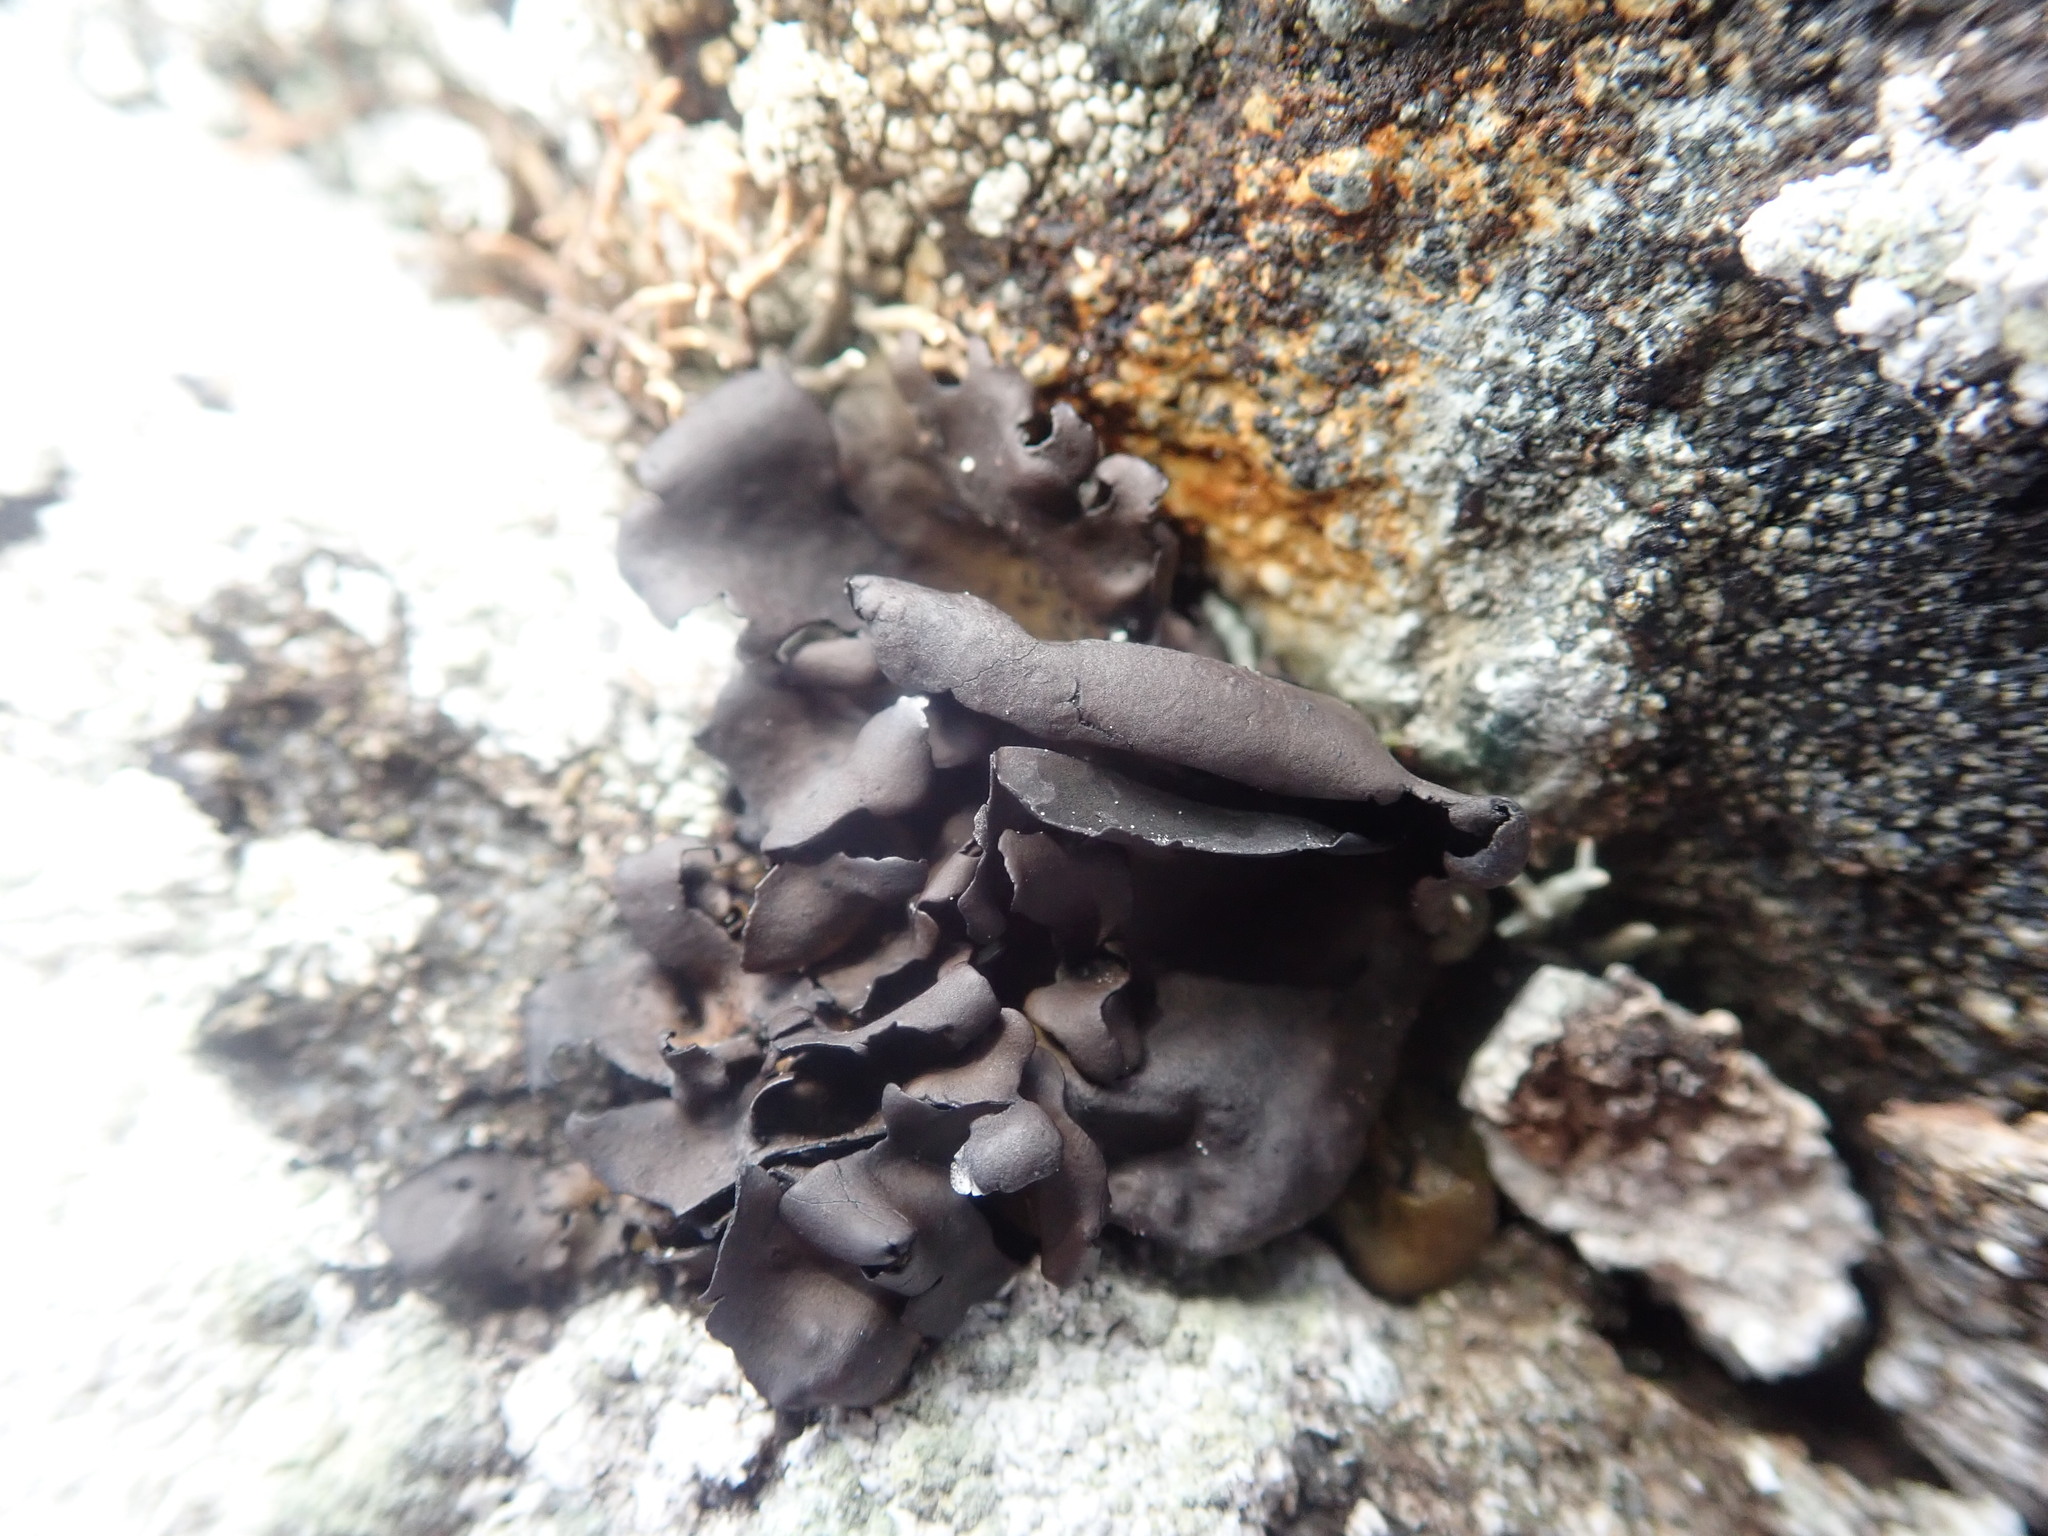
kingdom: Fungi
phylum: Ascomycota
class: Lecanoromycetes
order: Umbilicariales
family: Umbilicariaceae
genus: Umbilicaria
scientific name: Umbilicaria polyphylla
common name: Petalled rocktripe lichen
